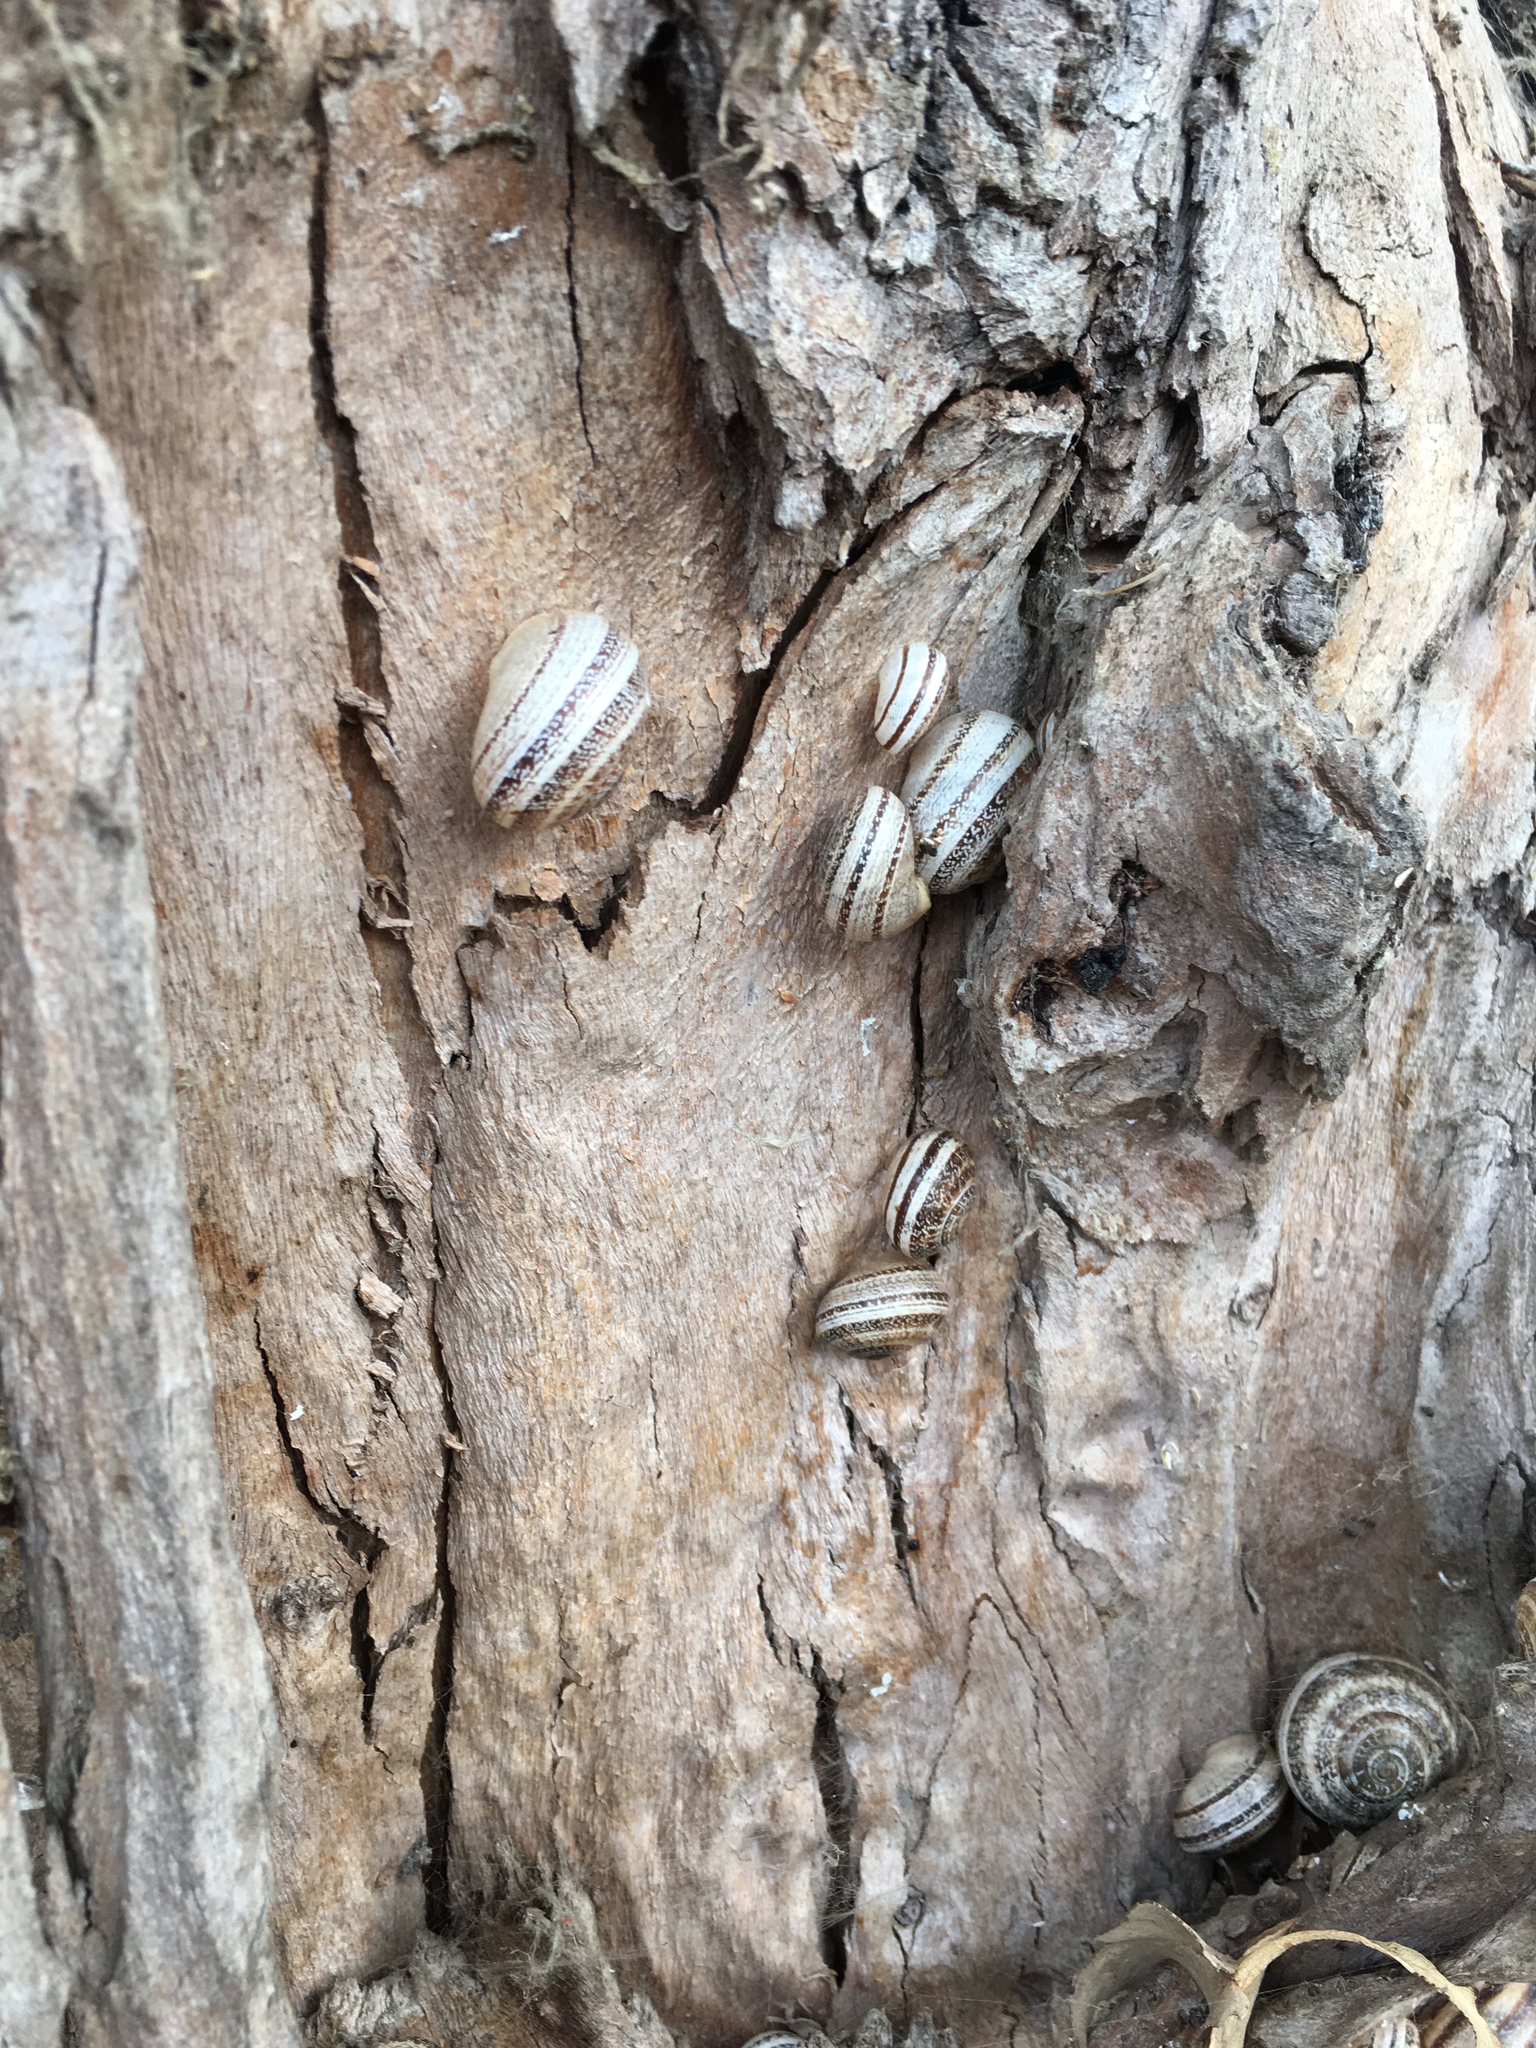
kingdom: Animalia
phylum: Mollusca
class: Gastropoda
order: Stylommatophora
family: Helicidae
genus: Otala
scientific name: Otala lactea
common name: Milk snail
